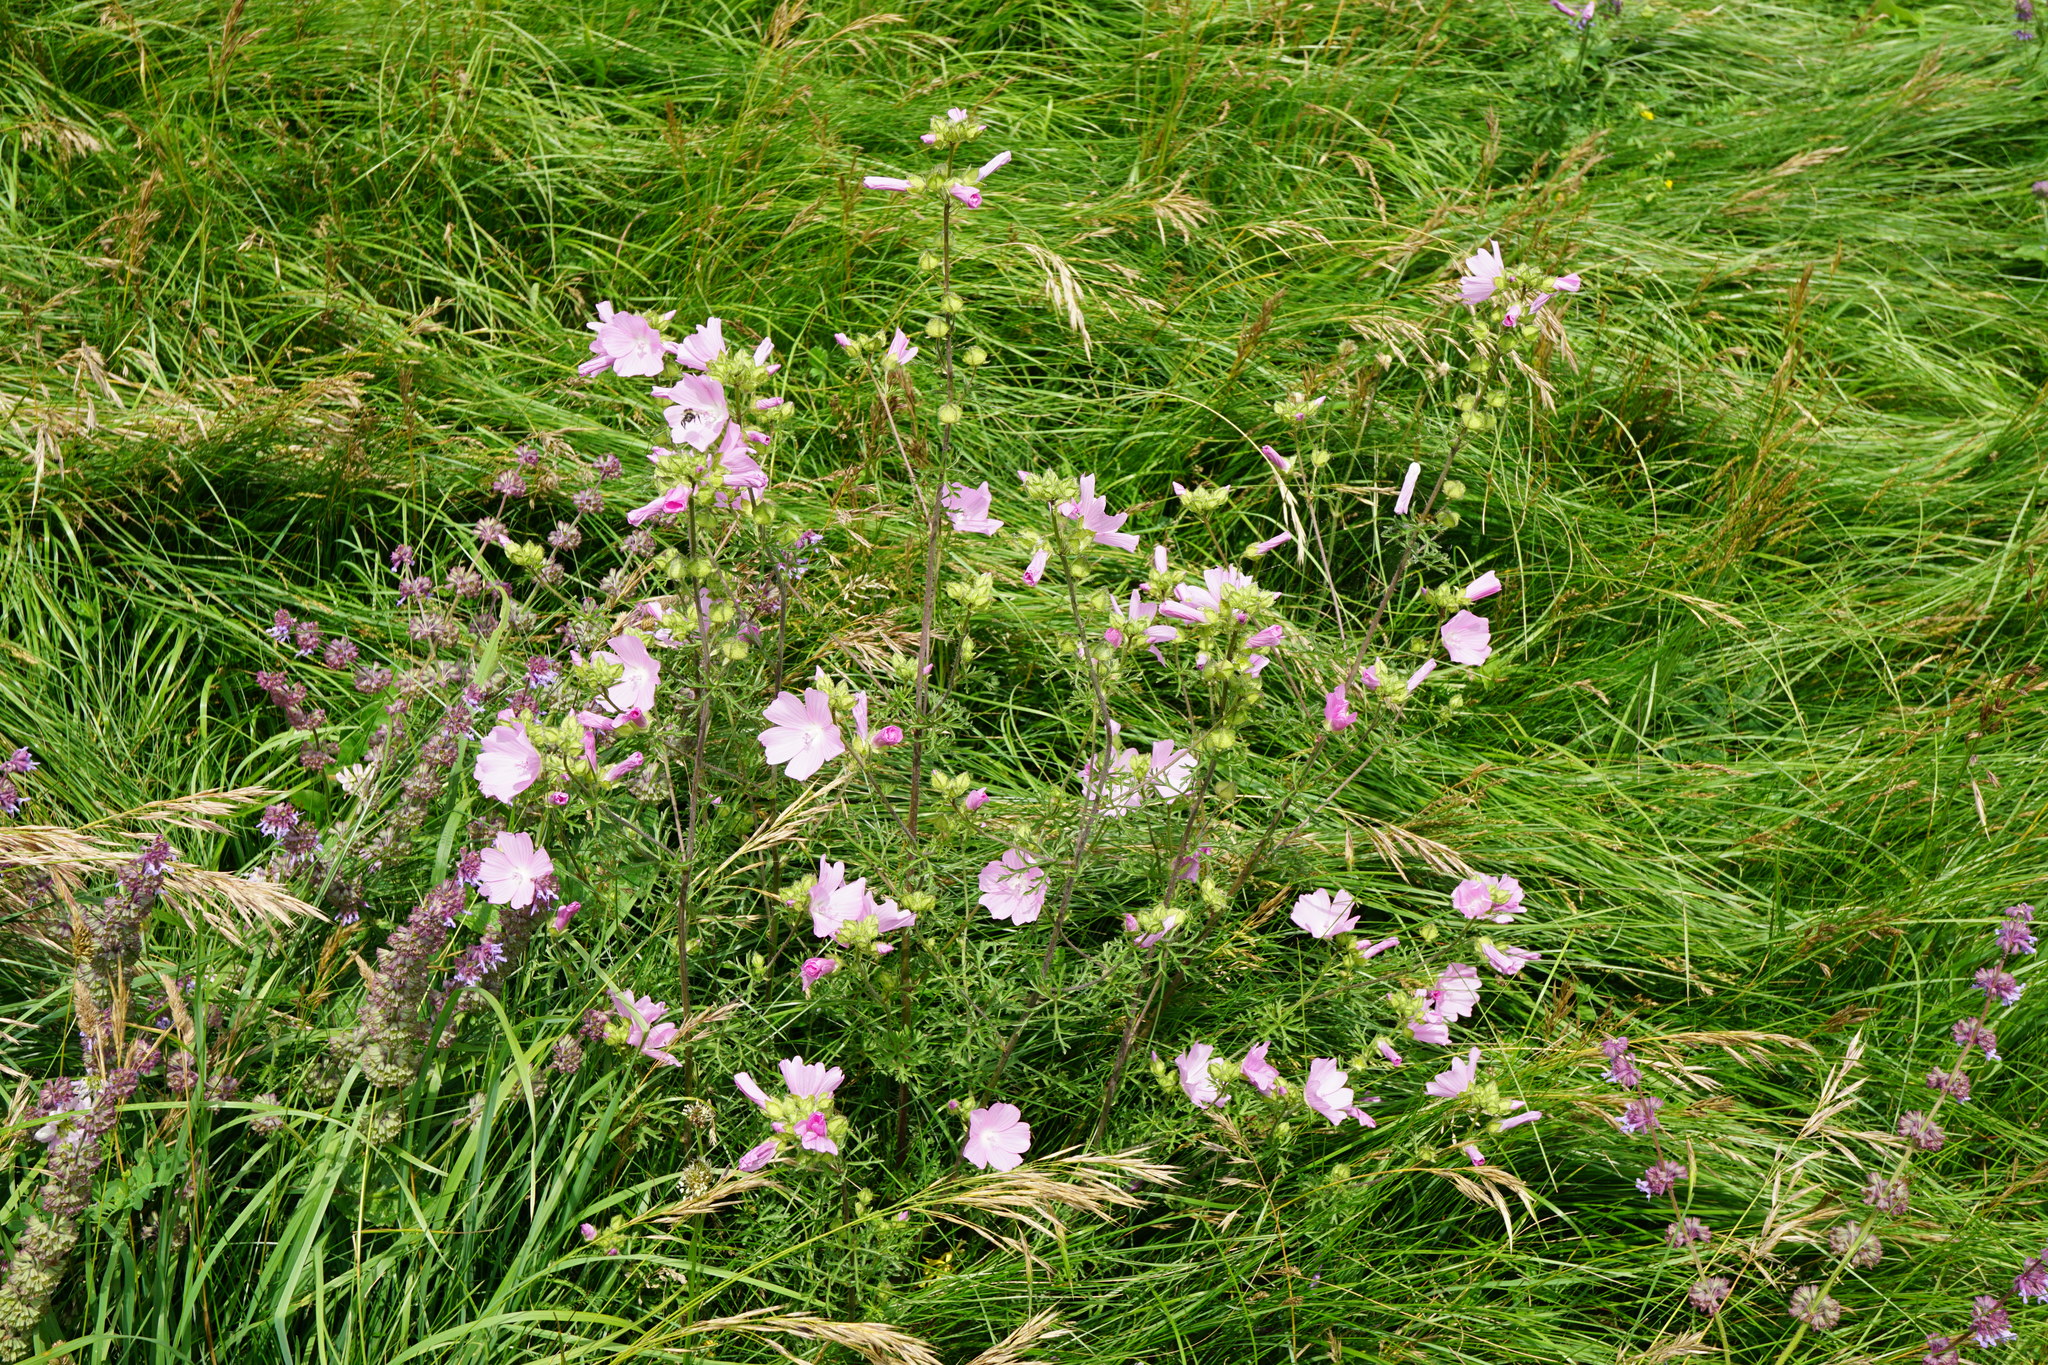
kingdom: Plantae
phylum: Tracheophyta
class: Magnoliopsida
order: Malvales
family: Malvaceae
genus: Malva
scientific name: Malva moschata
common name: Musk mallow
